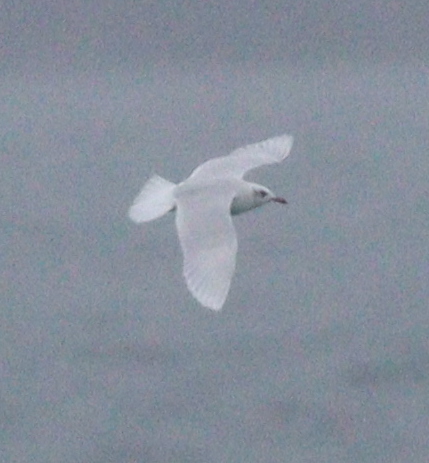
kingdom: Animalia
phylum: Chordata
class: Aves
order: Charadriiformes
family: Laridae
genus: Ichthyaetus
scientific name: Ichthyaetus melanocephalus
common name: Mediterranean gull
